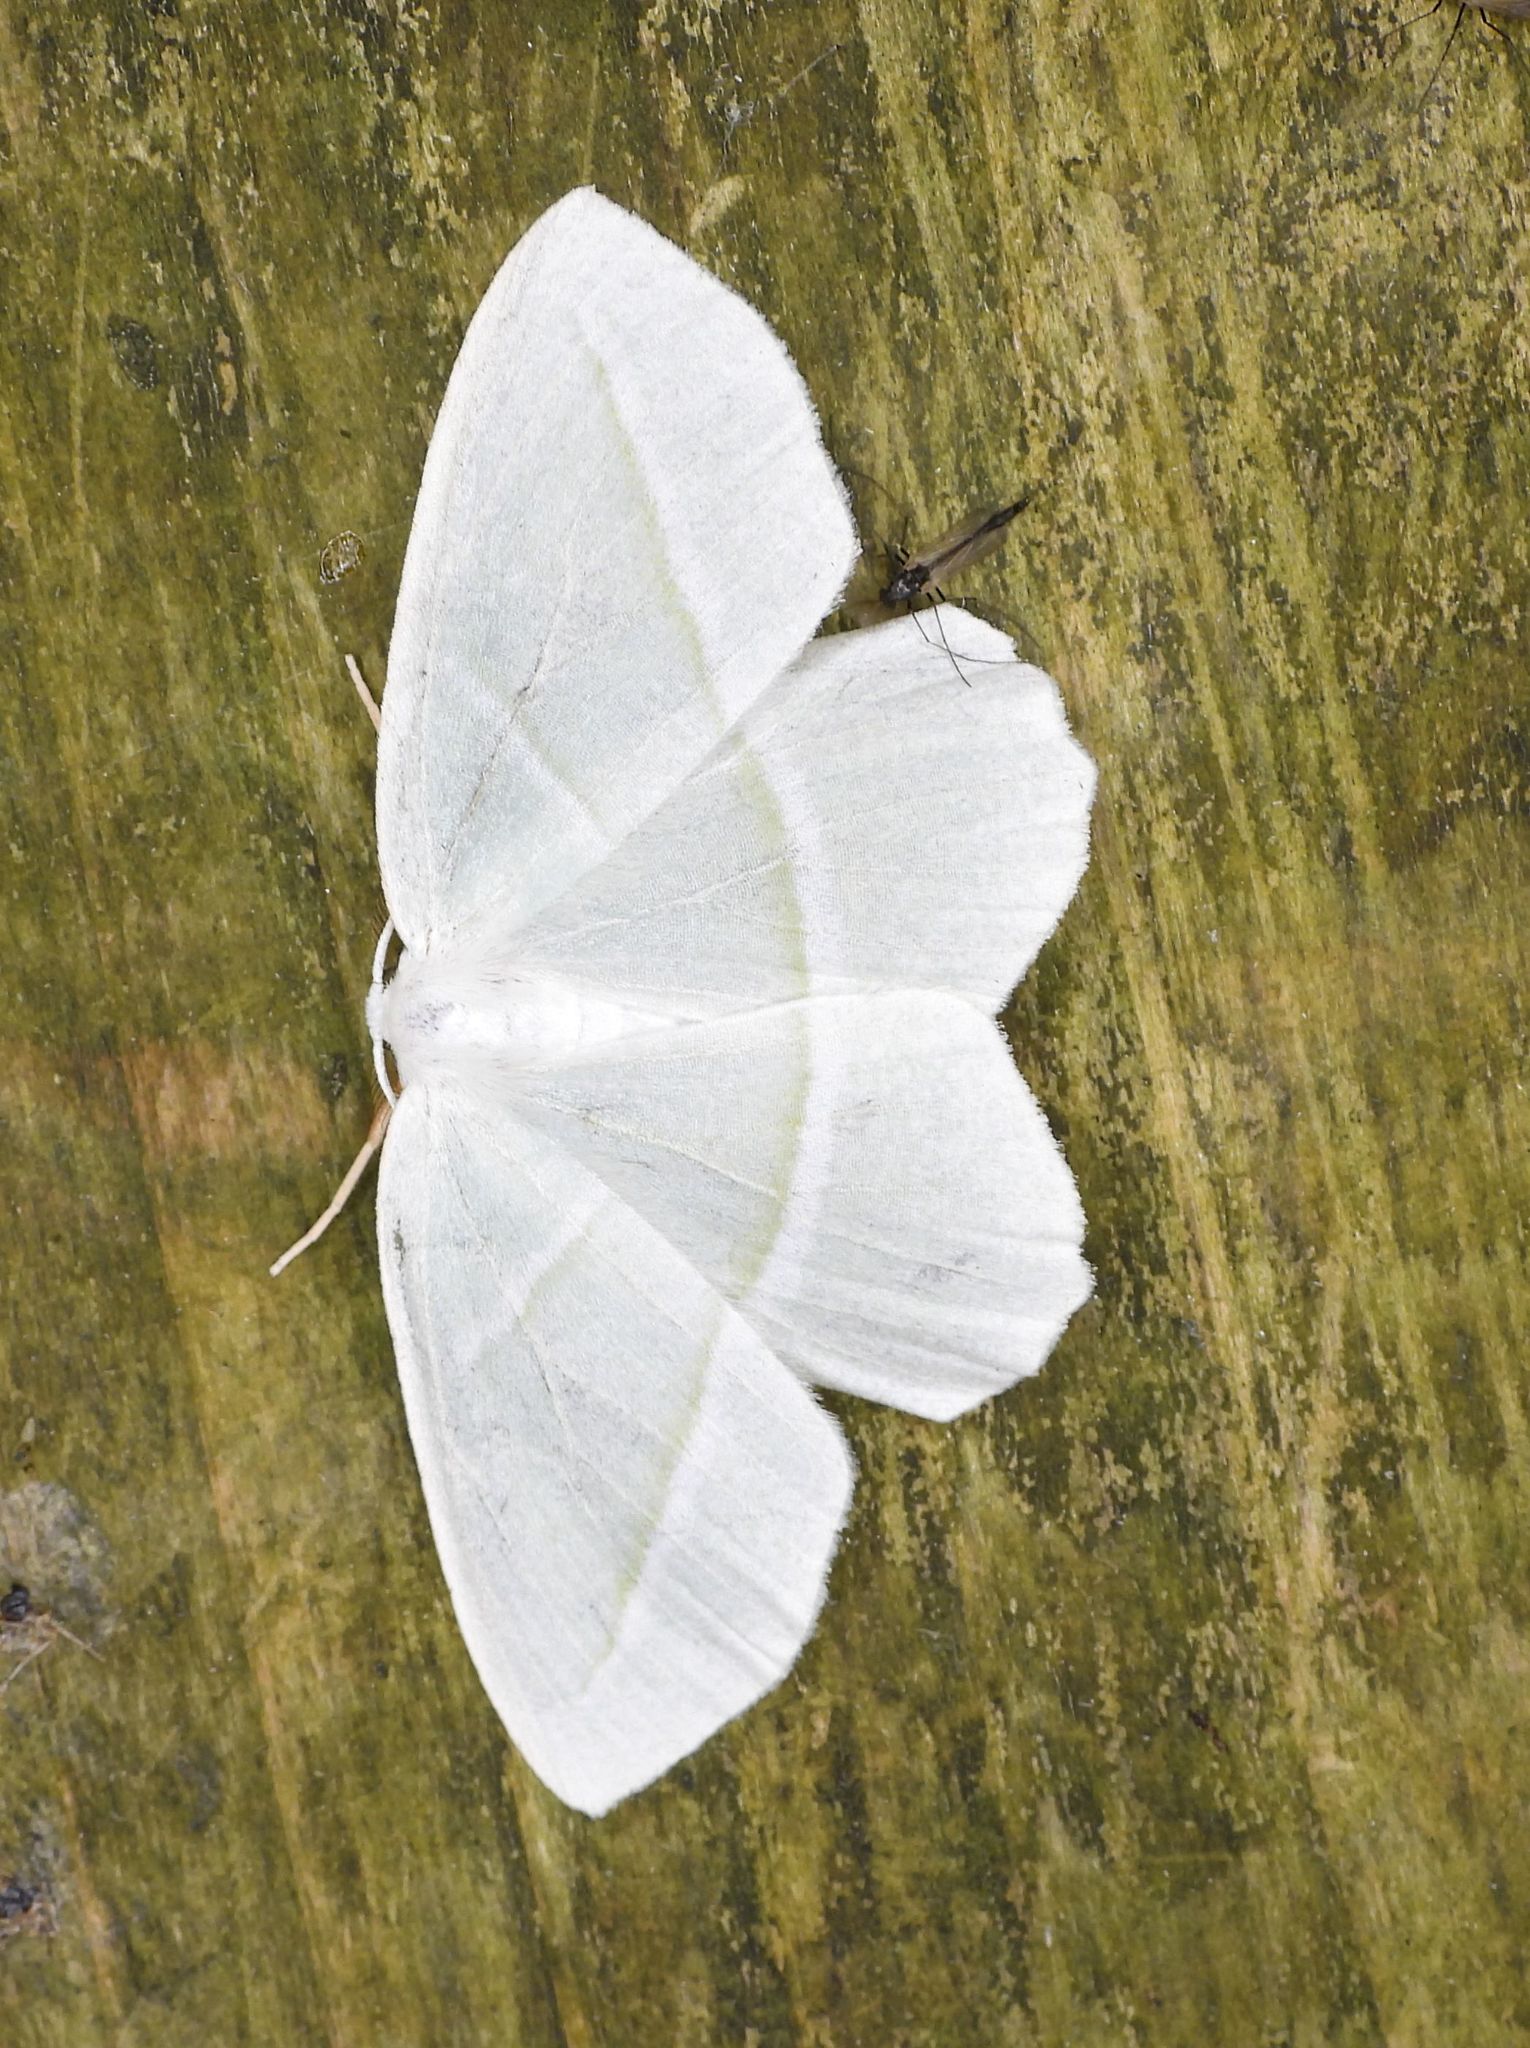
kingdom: Animalia
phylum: Arthropoda
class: Insecta
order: Lepidoptera
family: Geometridae
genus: Campaea
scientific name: Campaea perlata
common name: Fringed looper
